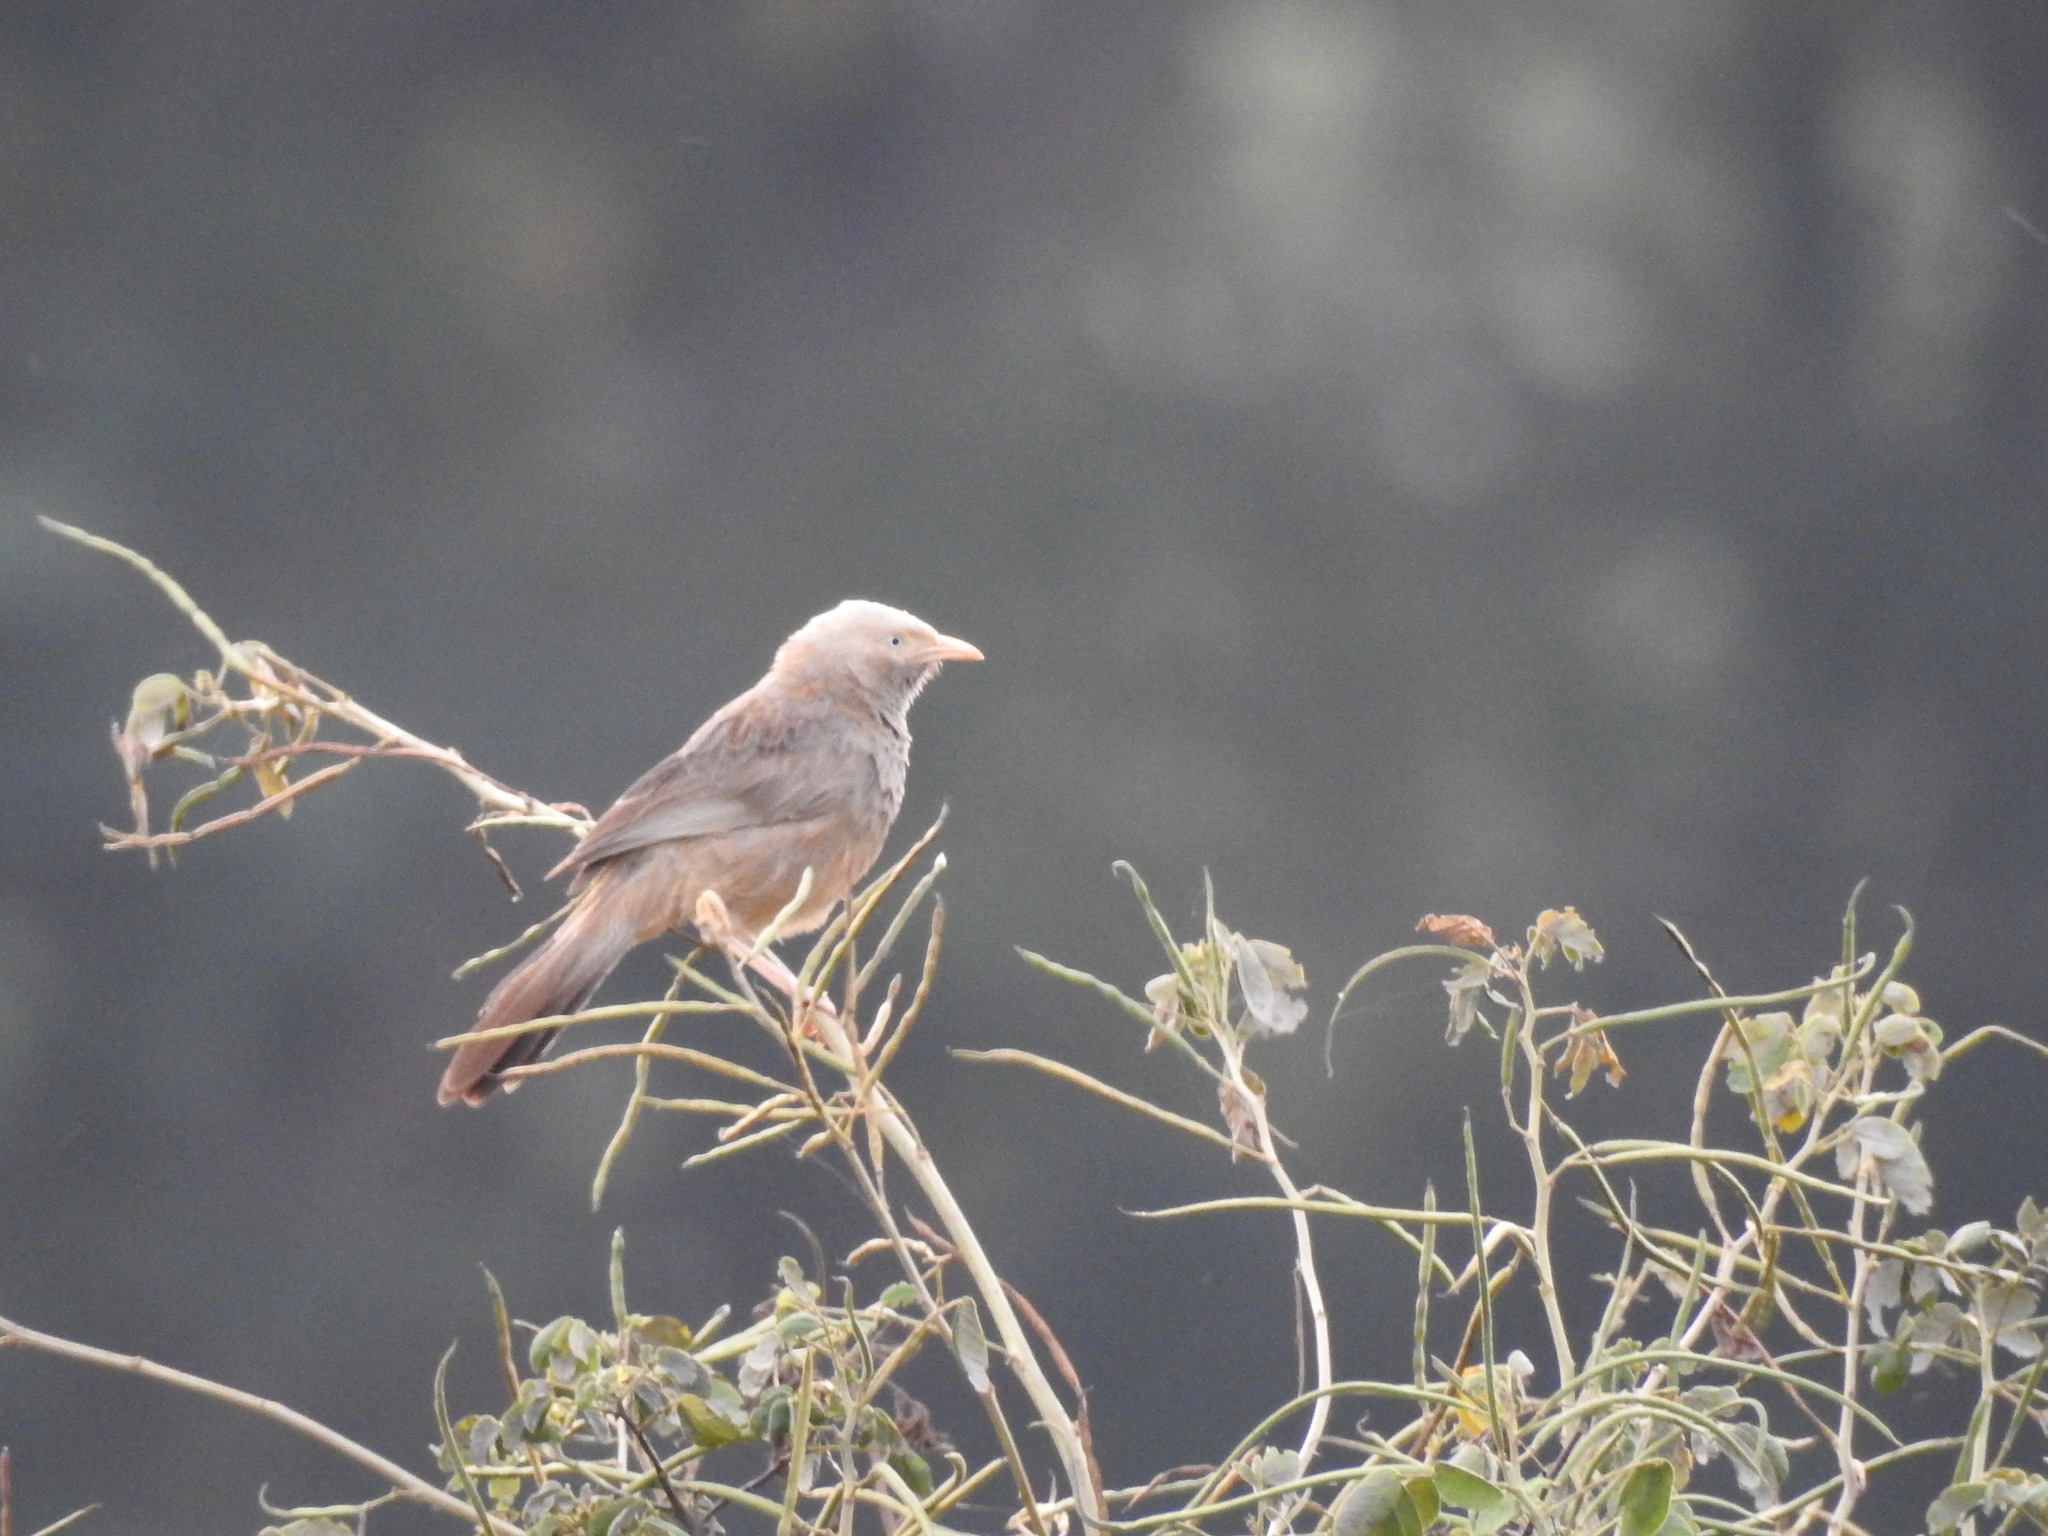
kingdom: Animalia
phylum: Chordata
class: Aves
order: Passeriformes
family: Leiothrichidae
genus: Turdoides
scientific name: Turdoides affinis
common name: Yellow-billed babbler
